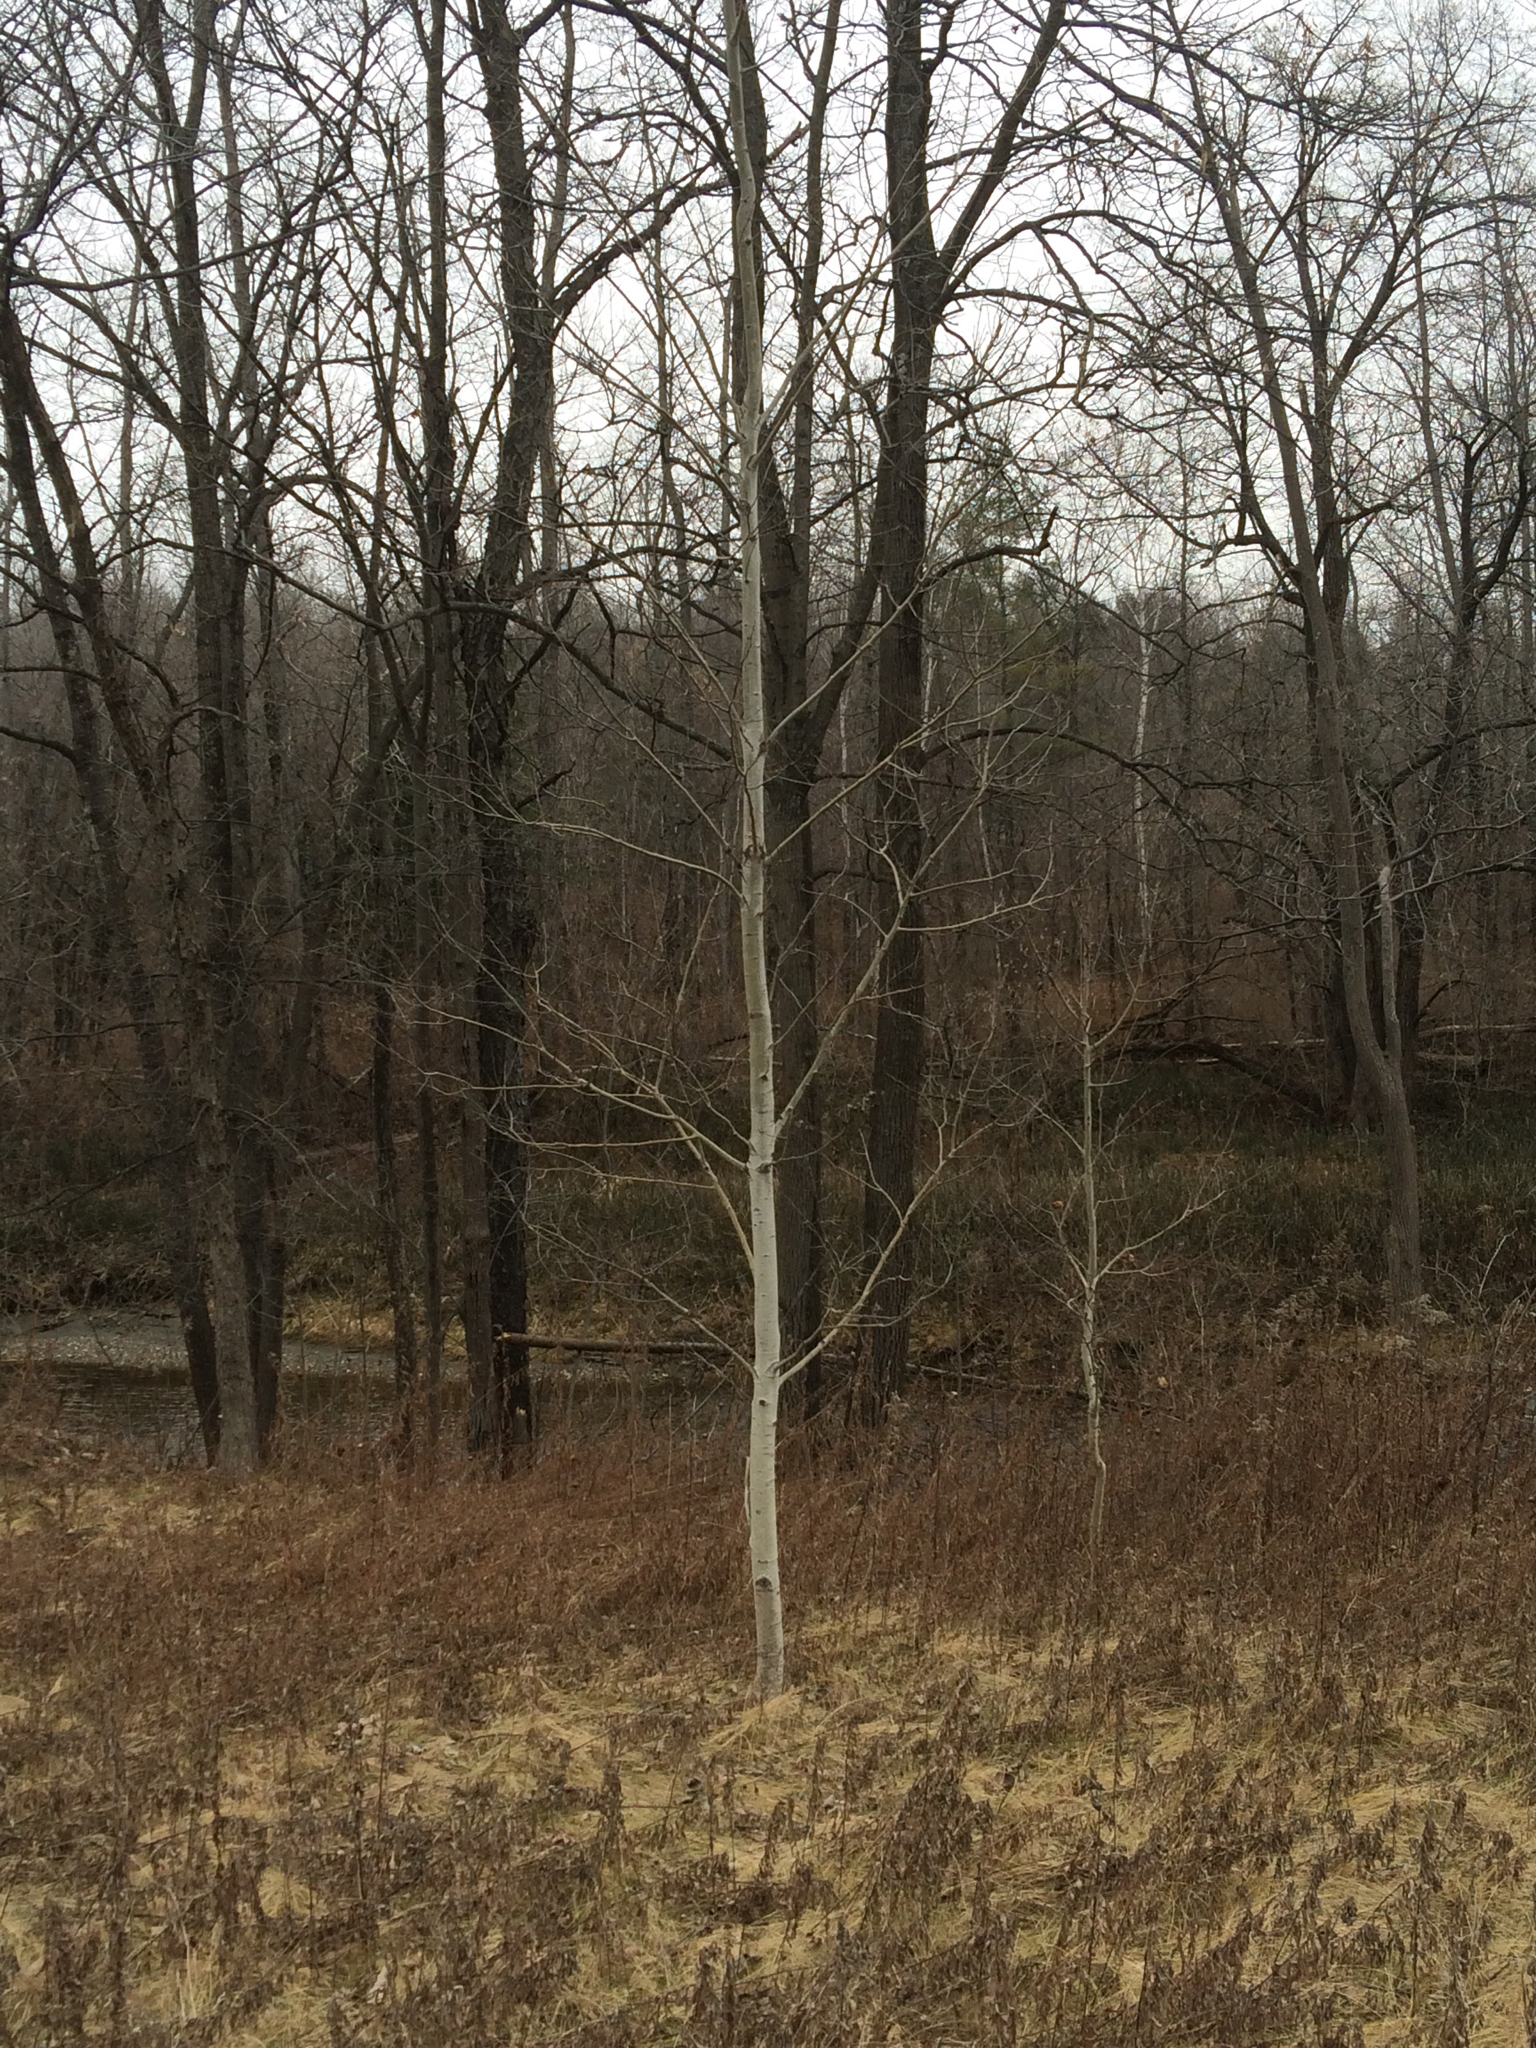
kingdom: Plantae
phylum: Tracheophyta
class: Magnoliopsida
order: Malpighiales
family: Salicaceae
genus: Populus
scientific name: Populus tremuloides
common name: Quaking aspen
